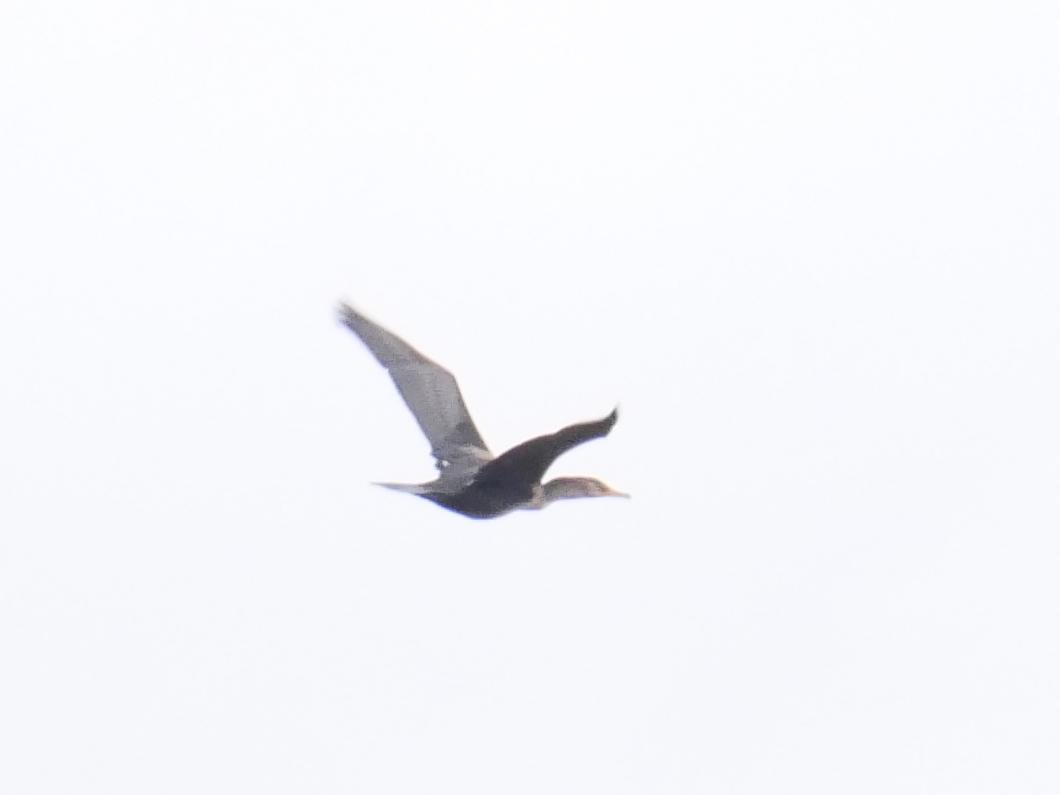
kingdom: Animalia
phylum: Chordata
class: Aves
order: Suliformes
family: Phalacrocoracidae
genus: Phalacrocorax
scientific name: Phalacrocorax auritus
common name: Double-crested cormorant
